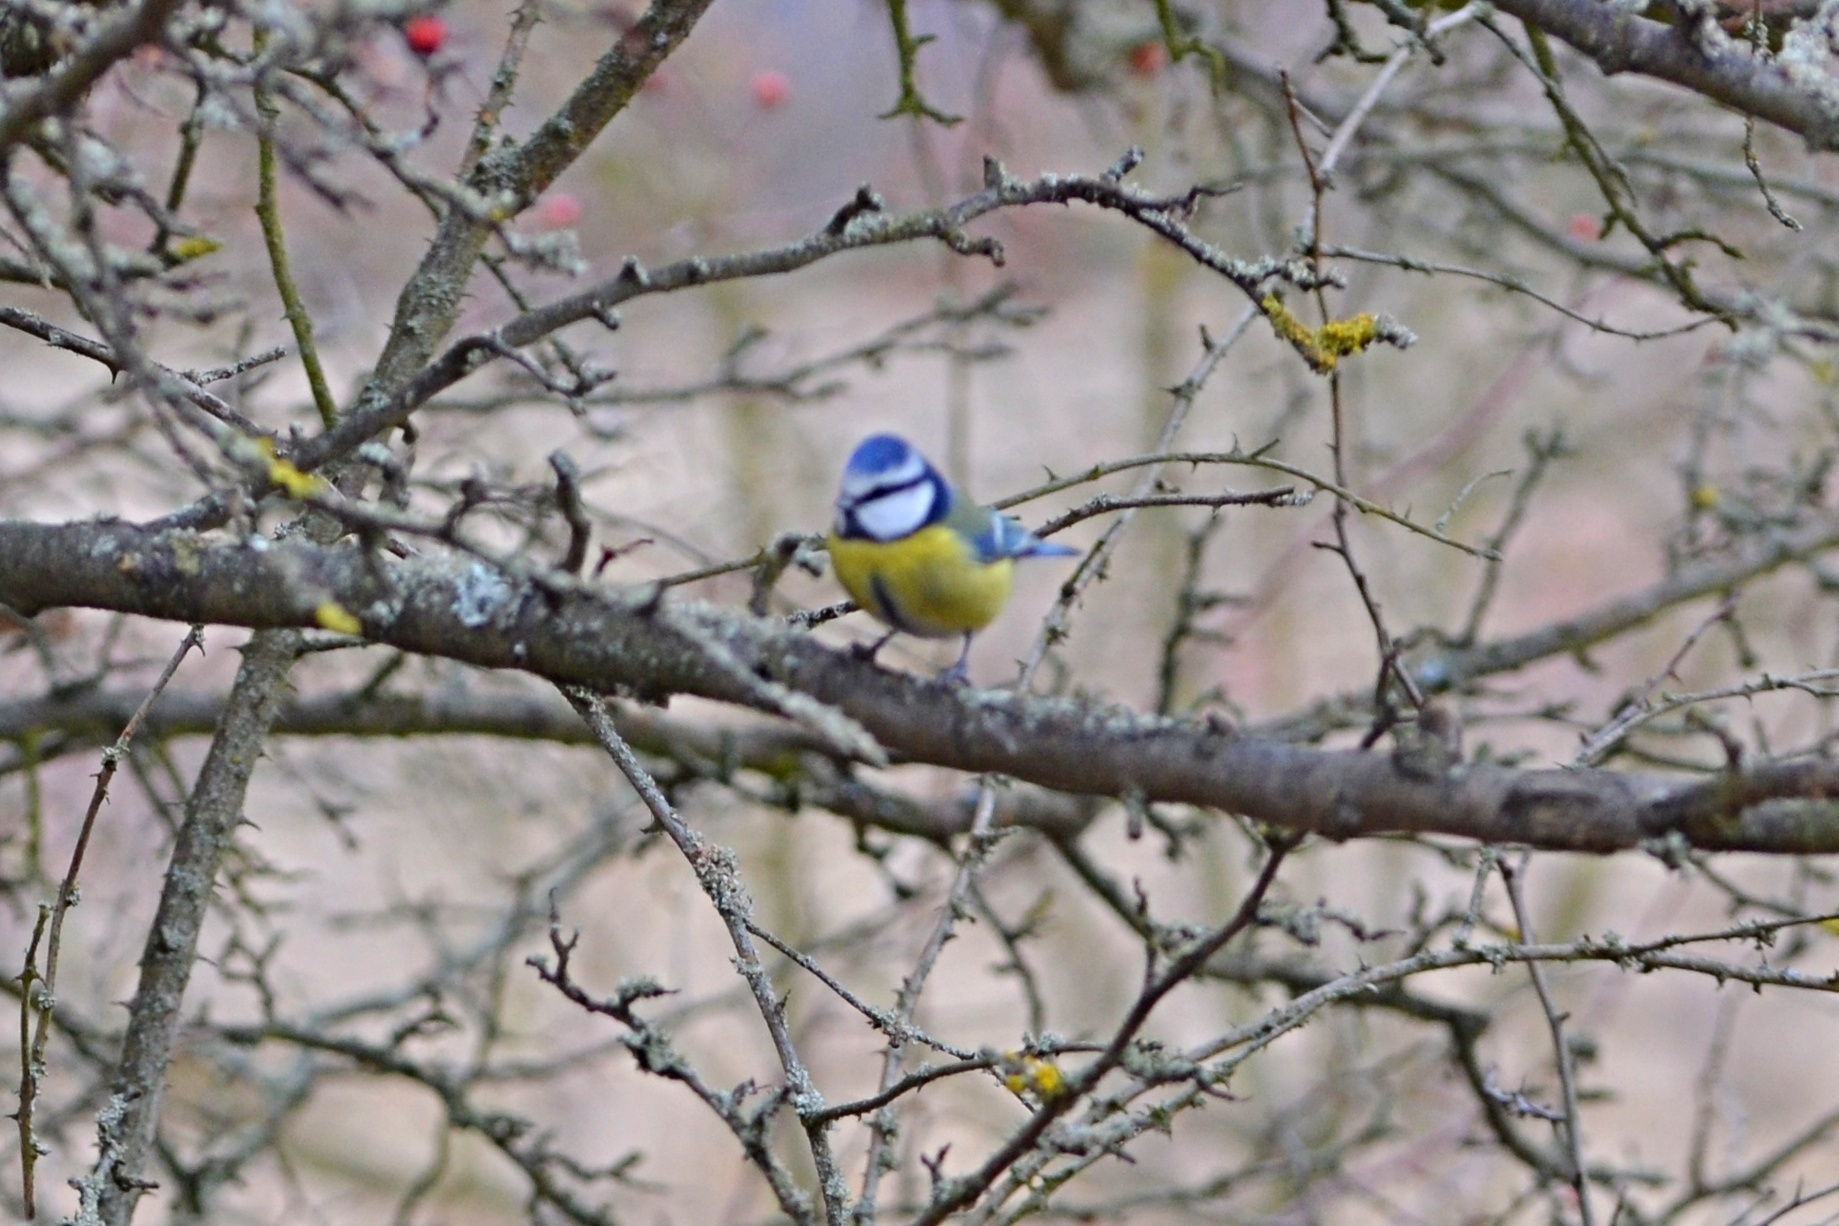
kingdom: Animalia
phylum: Chordata
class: Aves
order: Passeriformes
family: Paridae
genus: Cyanistes
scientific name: Cyanistes caeruleus
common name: Eurasian blue tit
